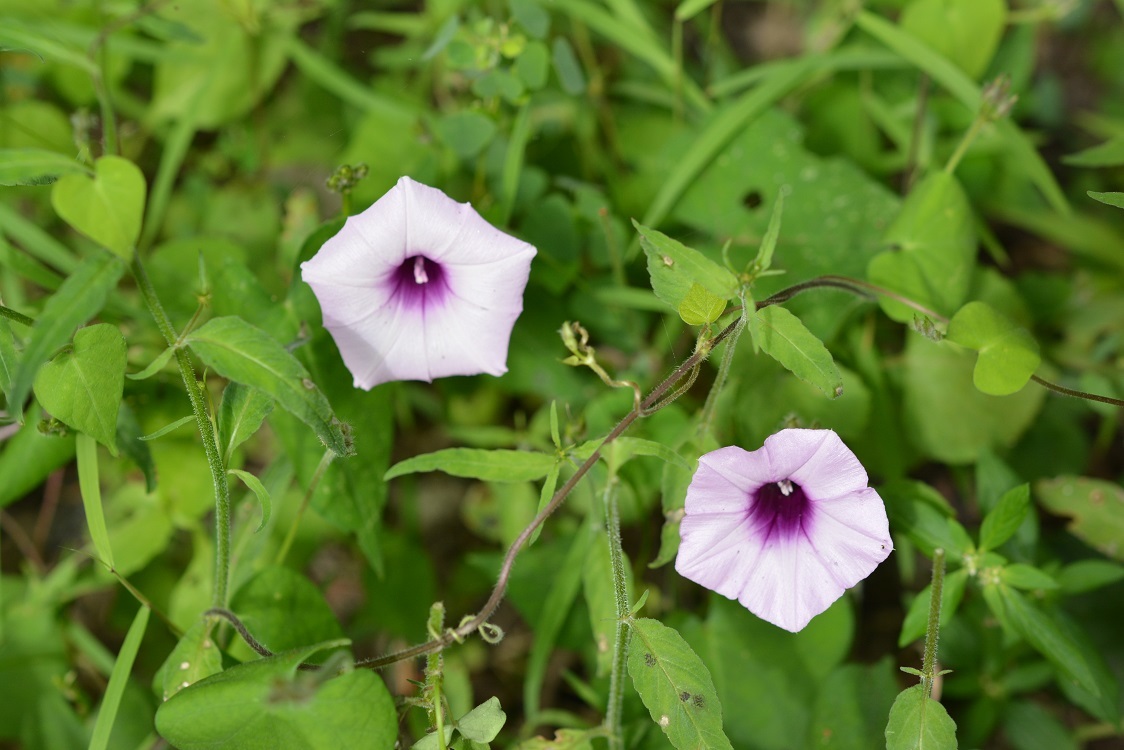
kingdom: Plantae
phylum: Tracheophyta
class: Magnoliopsida
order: Solanales
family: Convolvulaceae
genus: Ipomoea
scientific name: Ipomoea trifida
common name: Cotton morningglory
